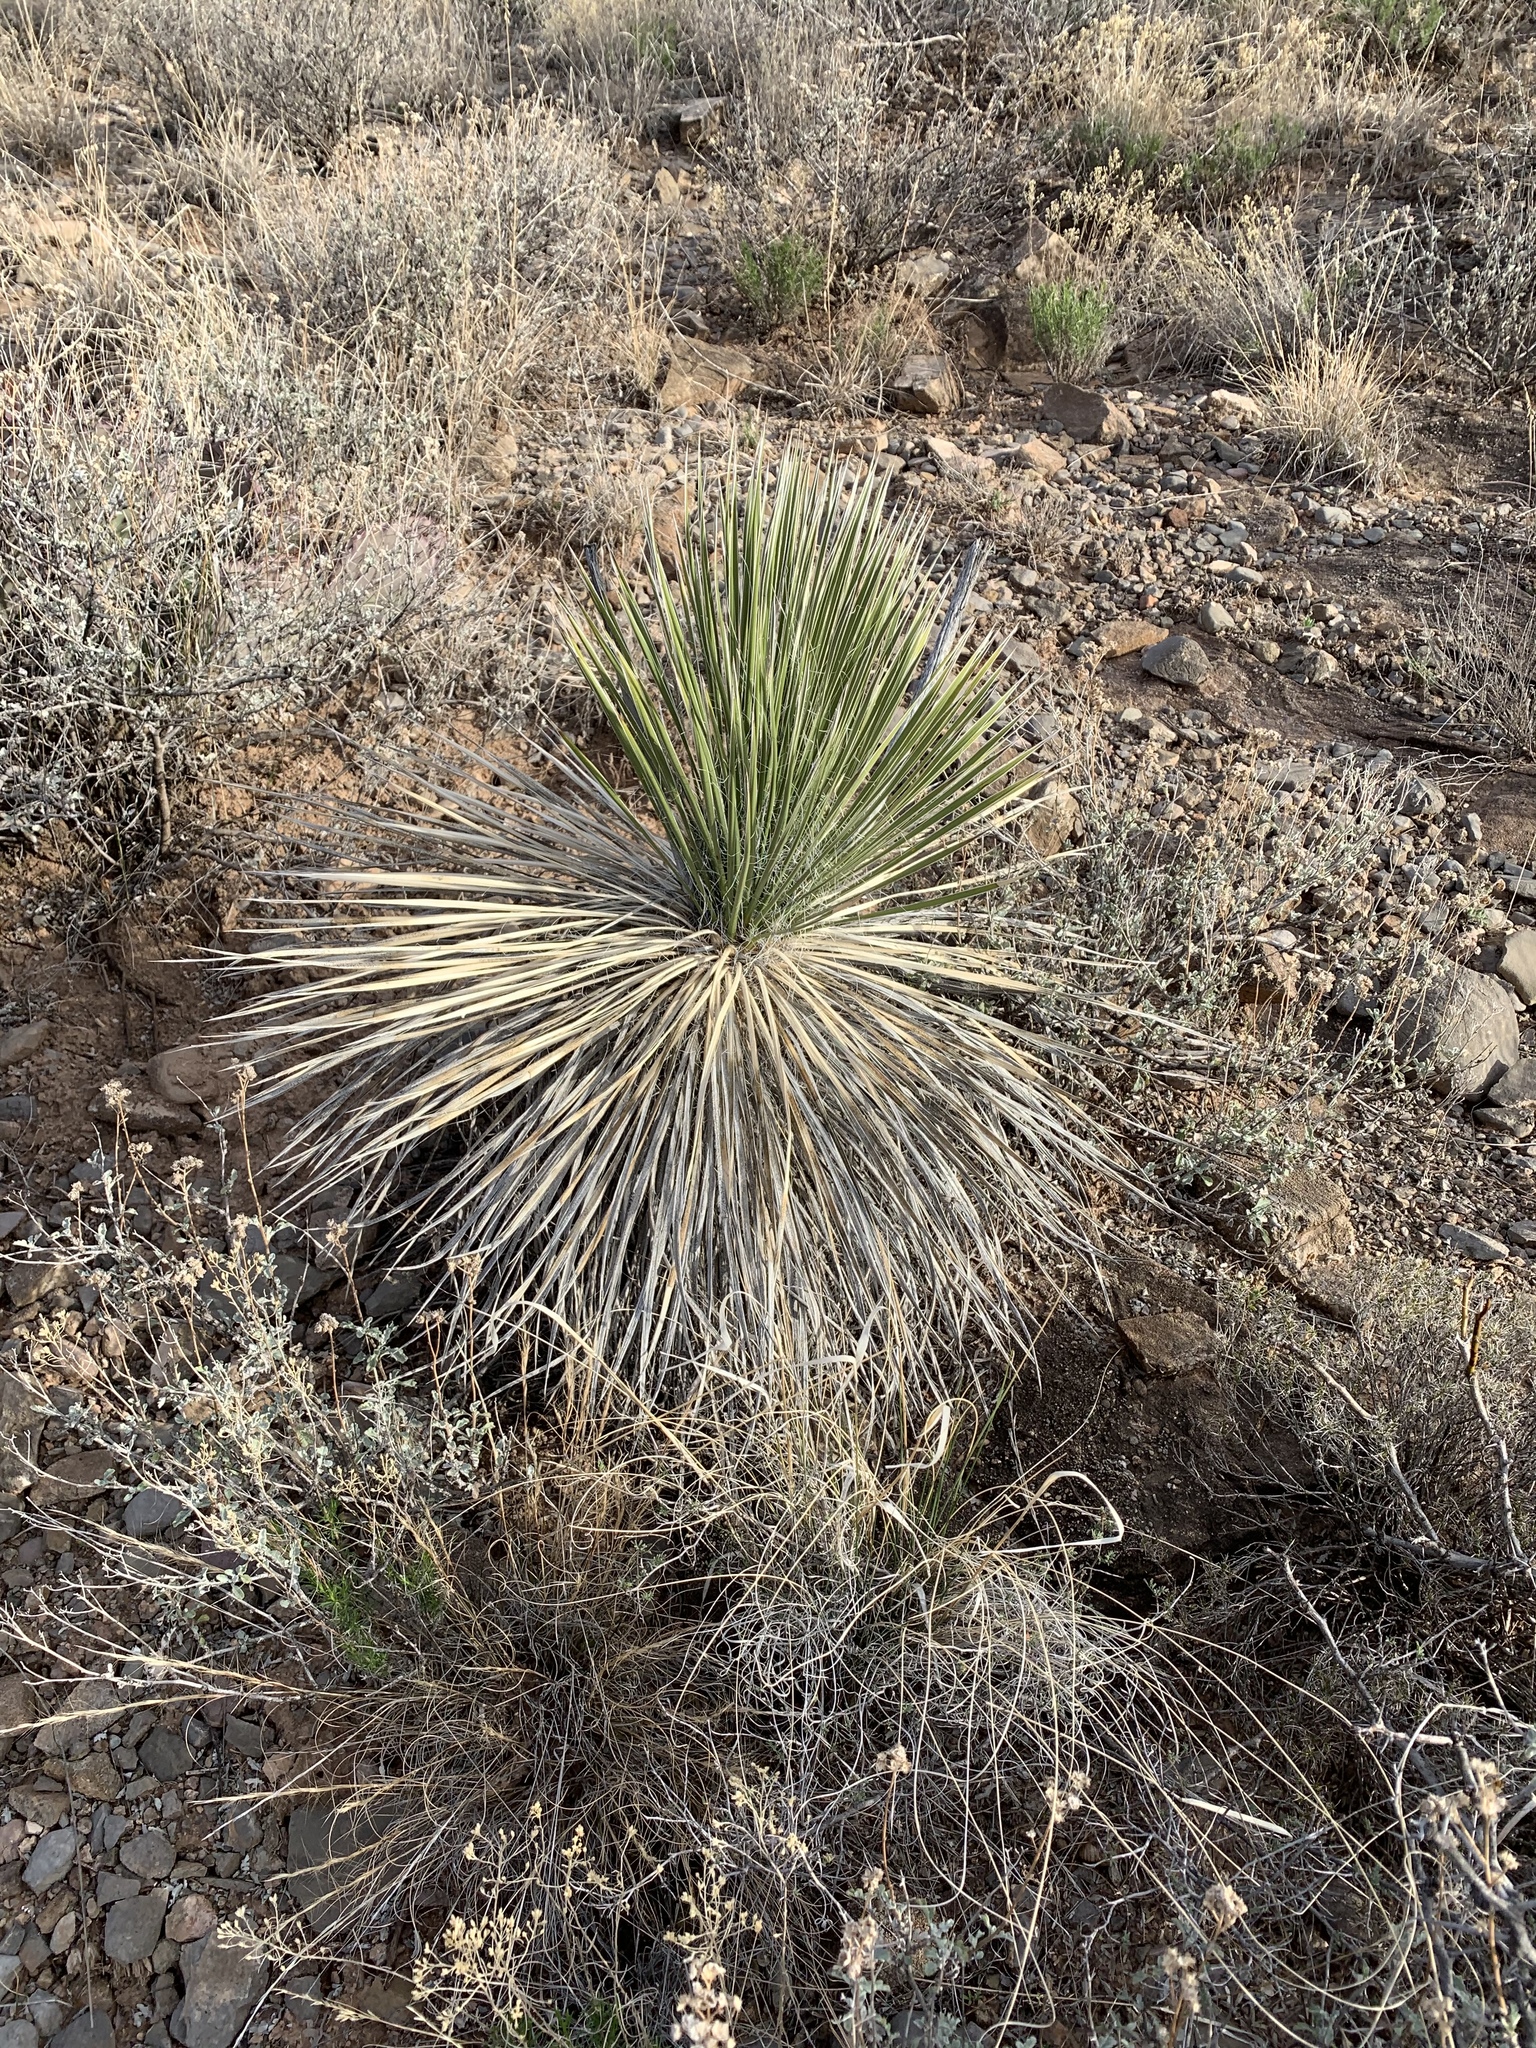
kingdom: Plantae
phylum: Tracheophyta
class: Liliopsida
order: Asparagales
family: Asparagaceae
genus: Yucca
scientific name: Yucca elata
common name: Palmella
